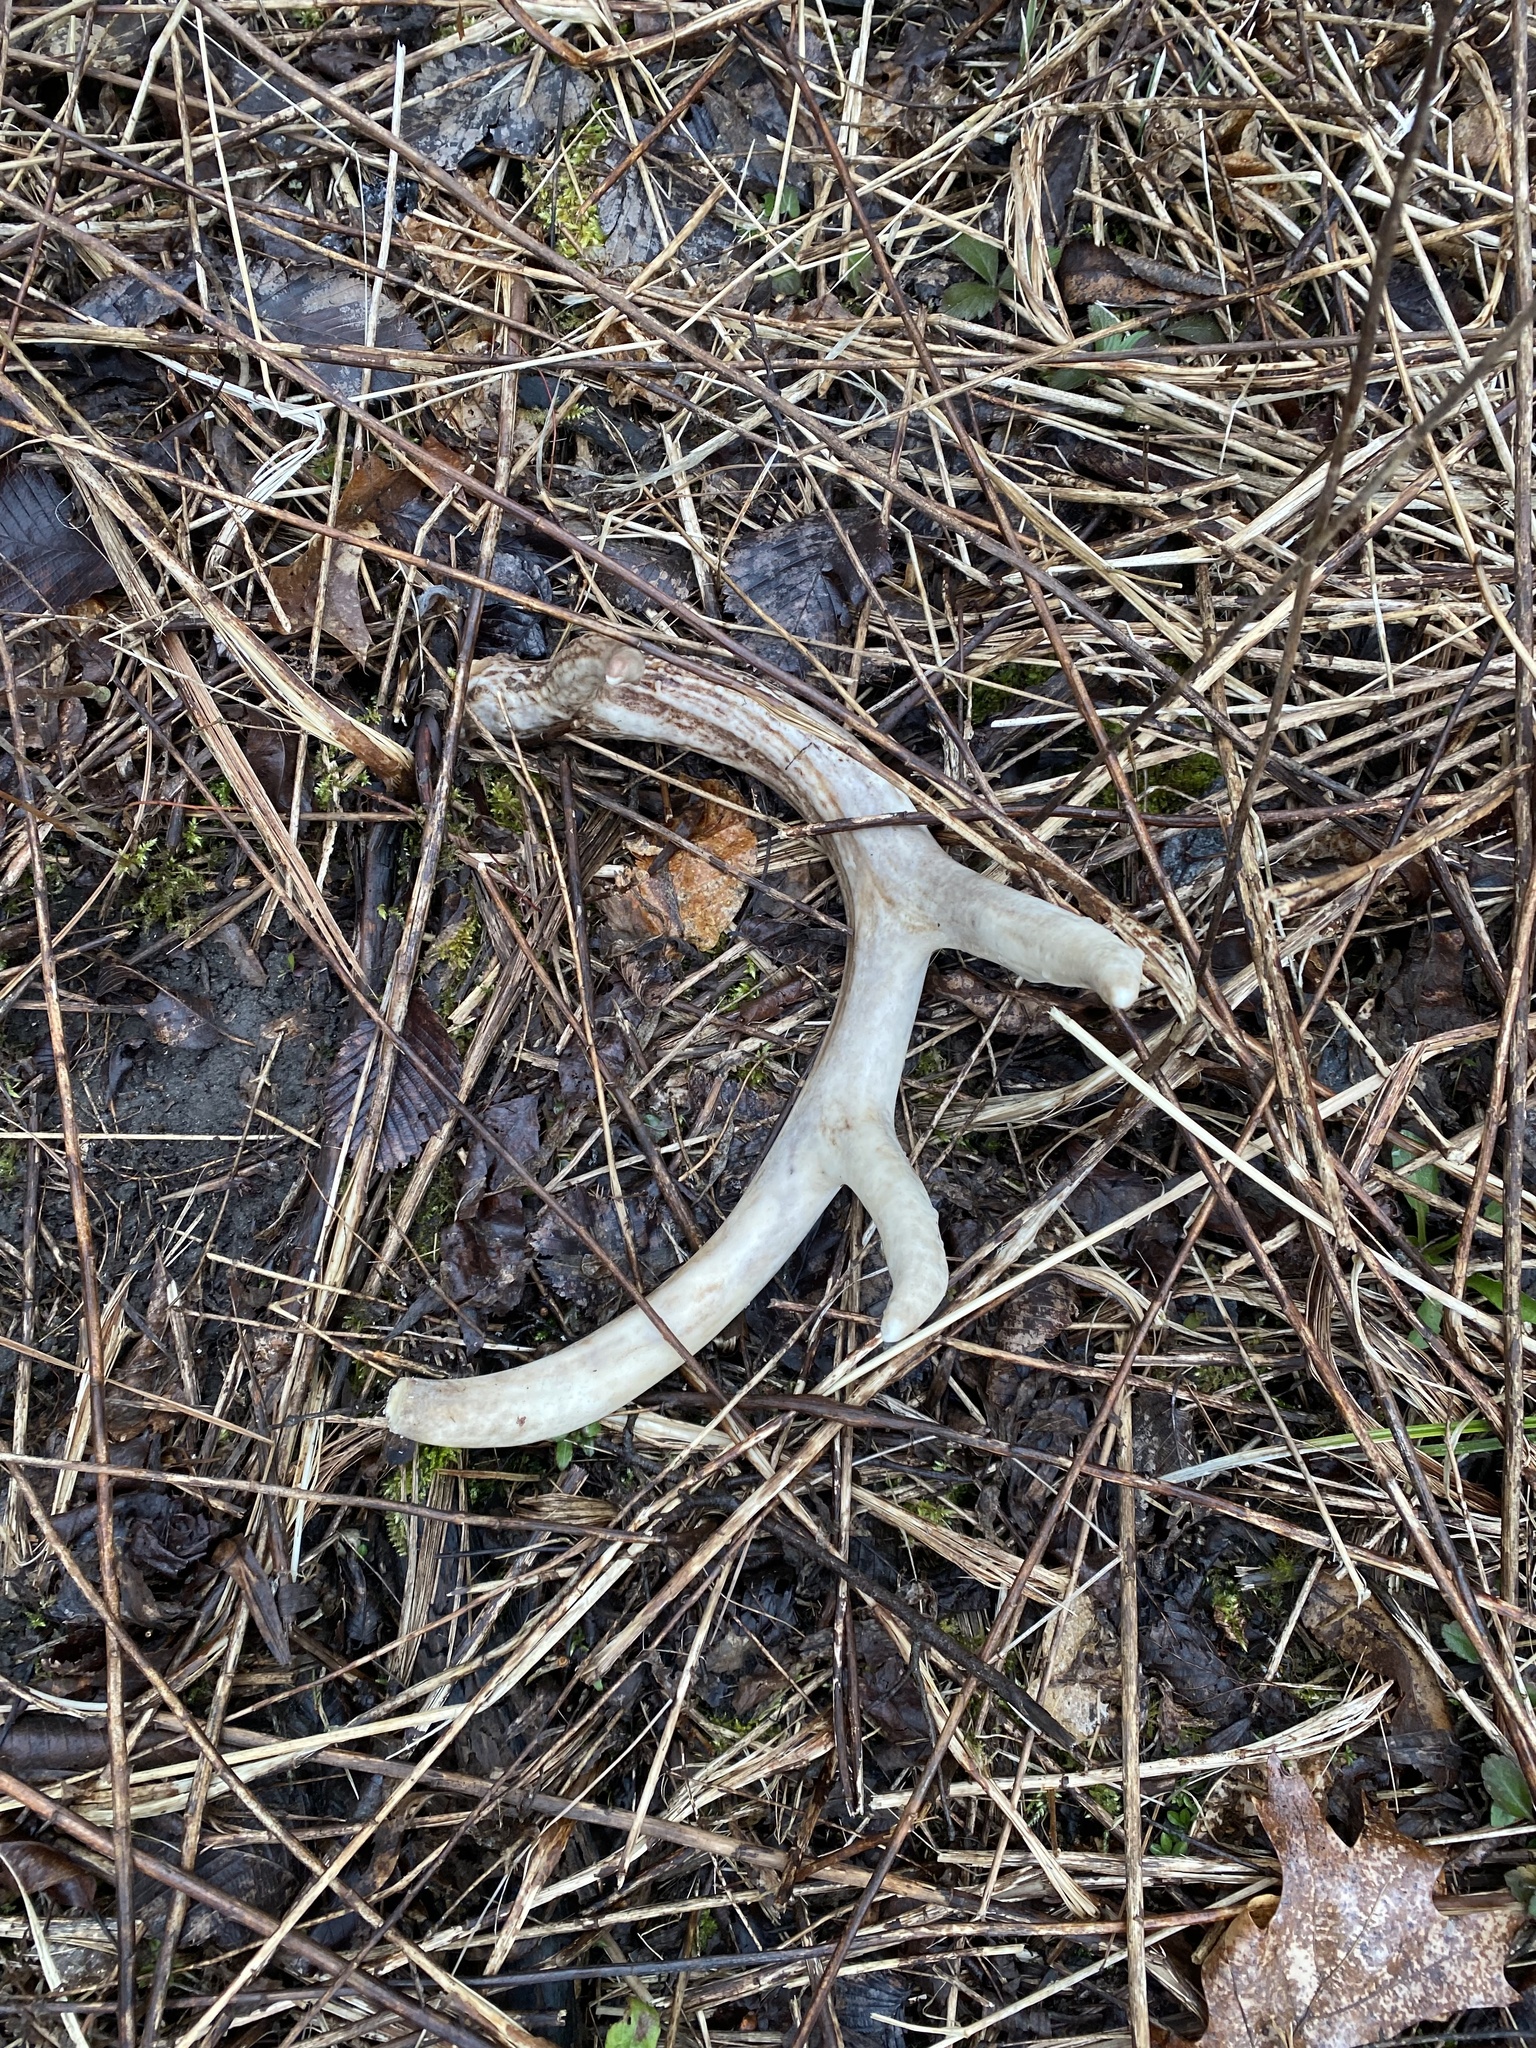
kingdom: Animalia
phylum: Chordata
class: Mammalia
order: Artiodactyla
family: Cervidae
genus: Odocoileus
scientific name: Odocoileus virginianus
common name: White-tailed deer
